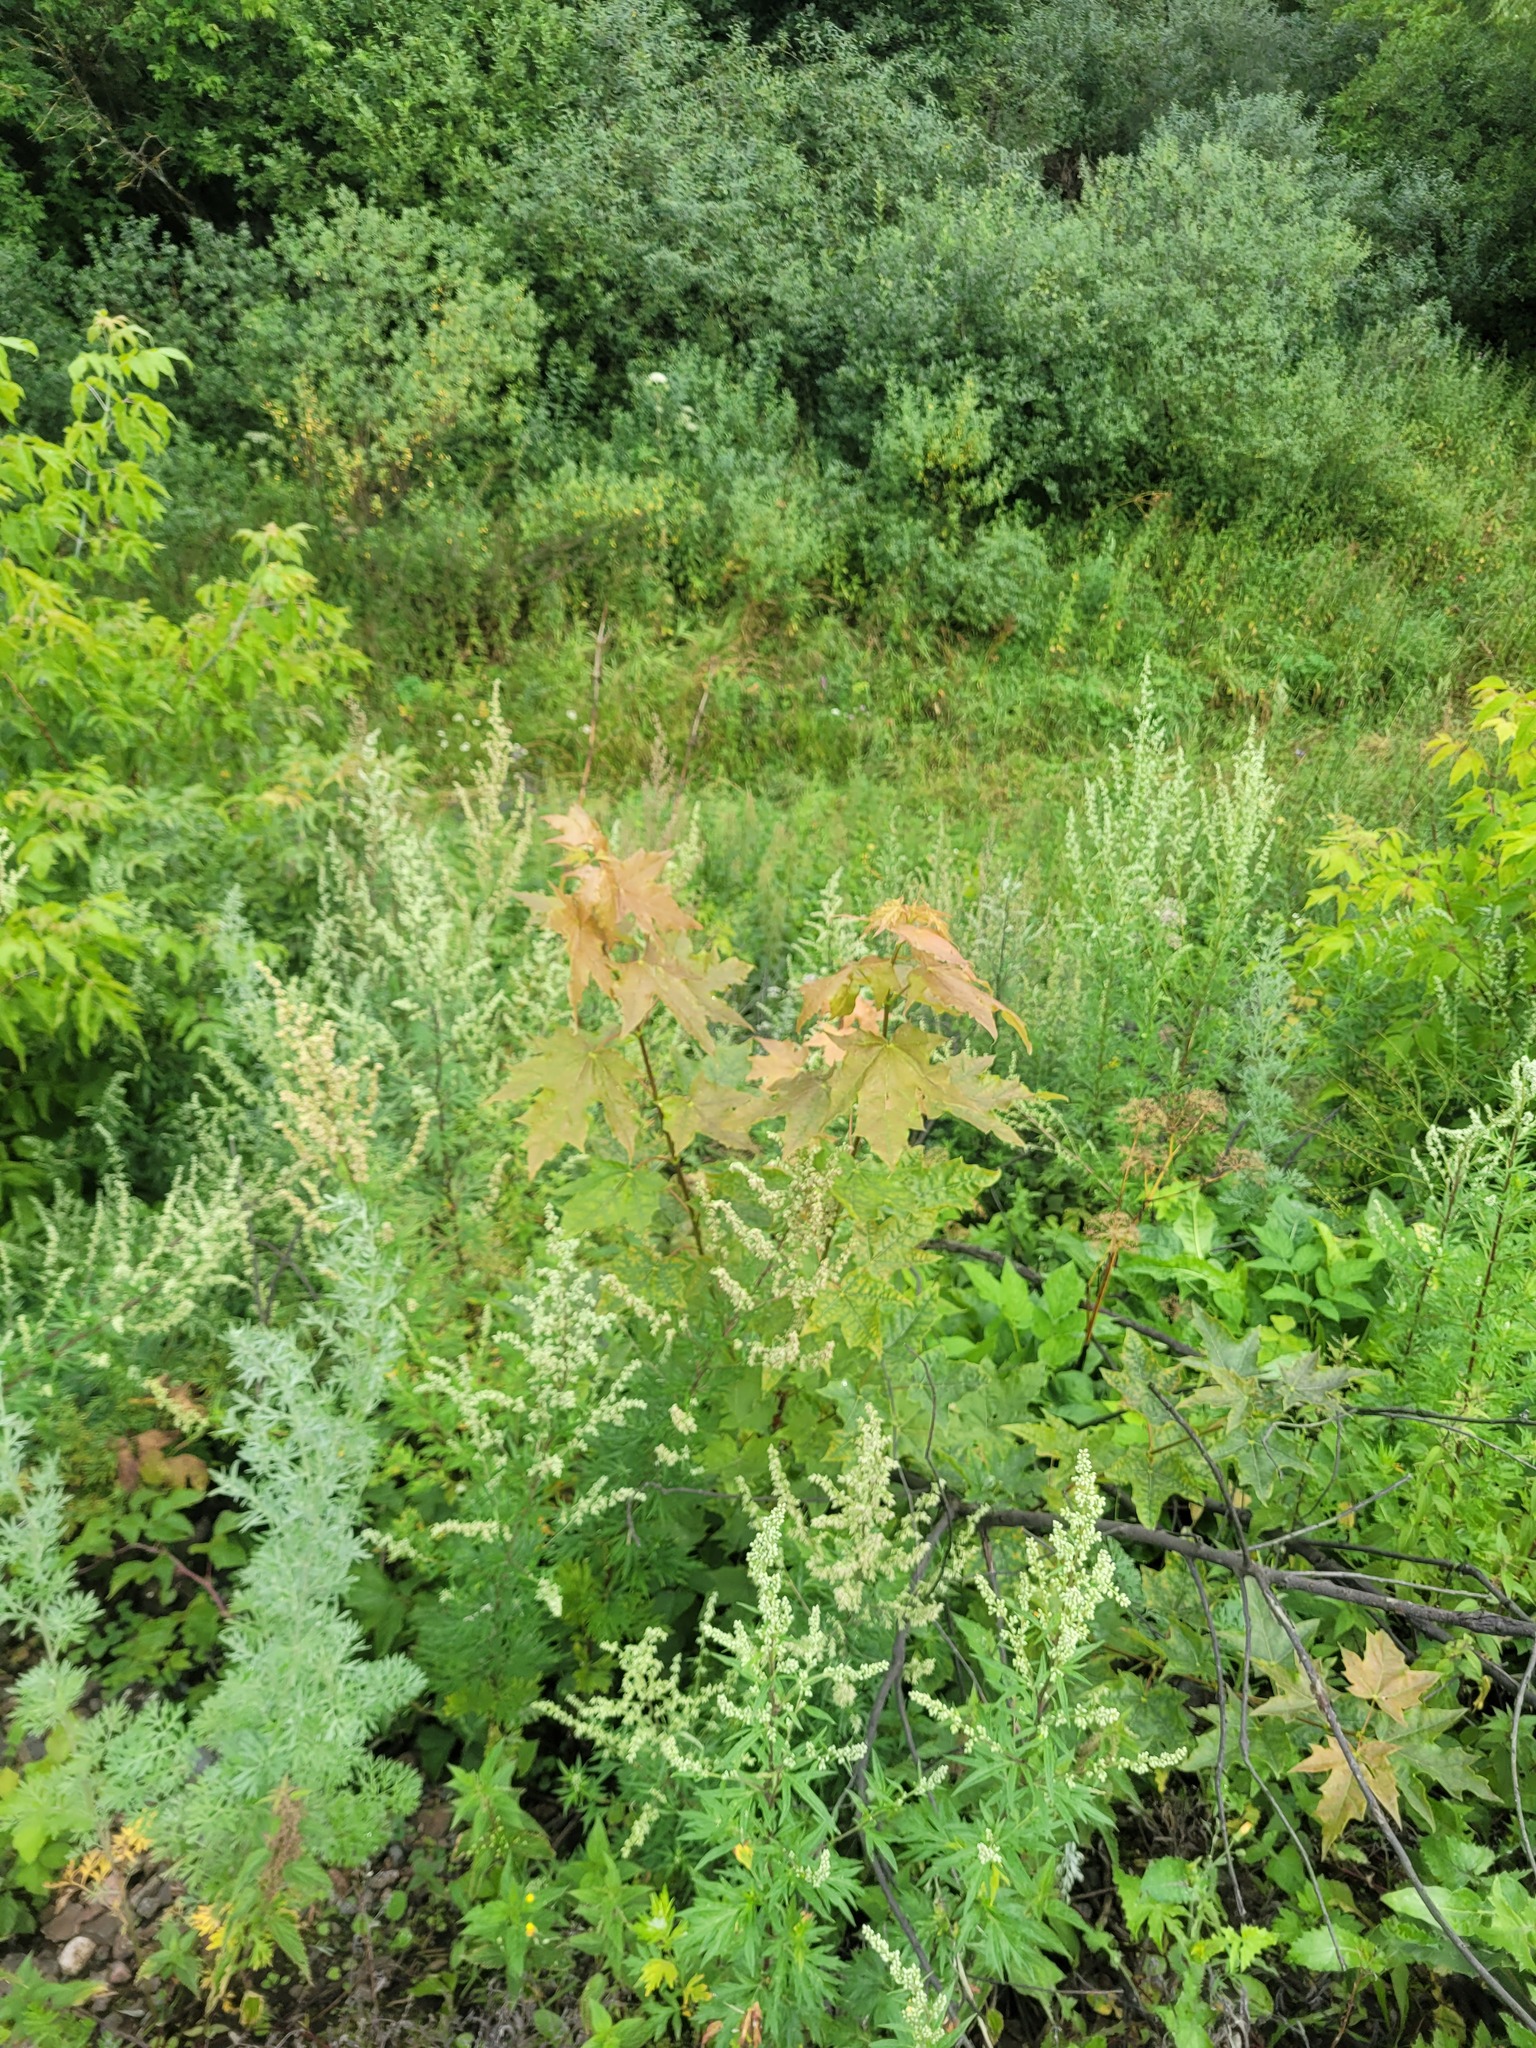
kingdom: Plantae
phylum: Tracheophyta
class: Magnoliopsida
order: Sapindales
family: Sapindaceae
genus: Acer
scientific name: Acer platanoides
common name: Norway maple
